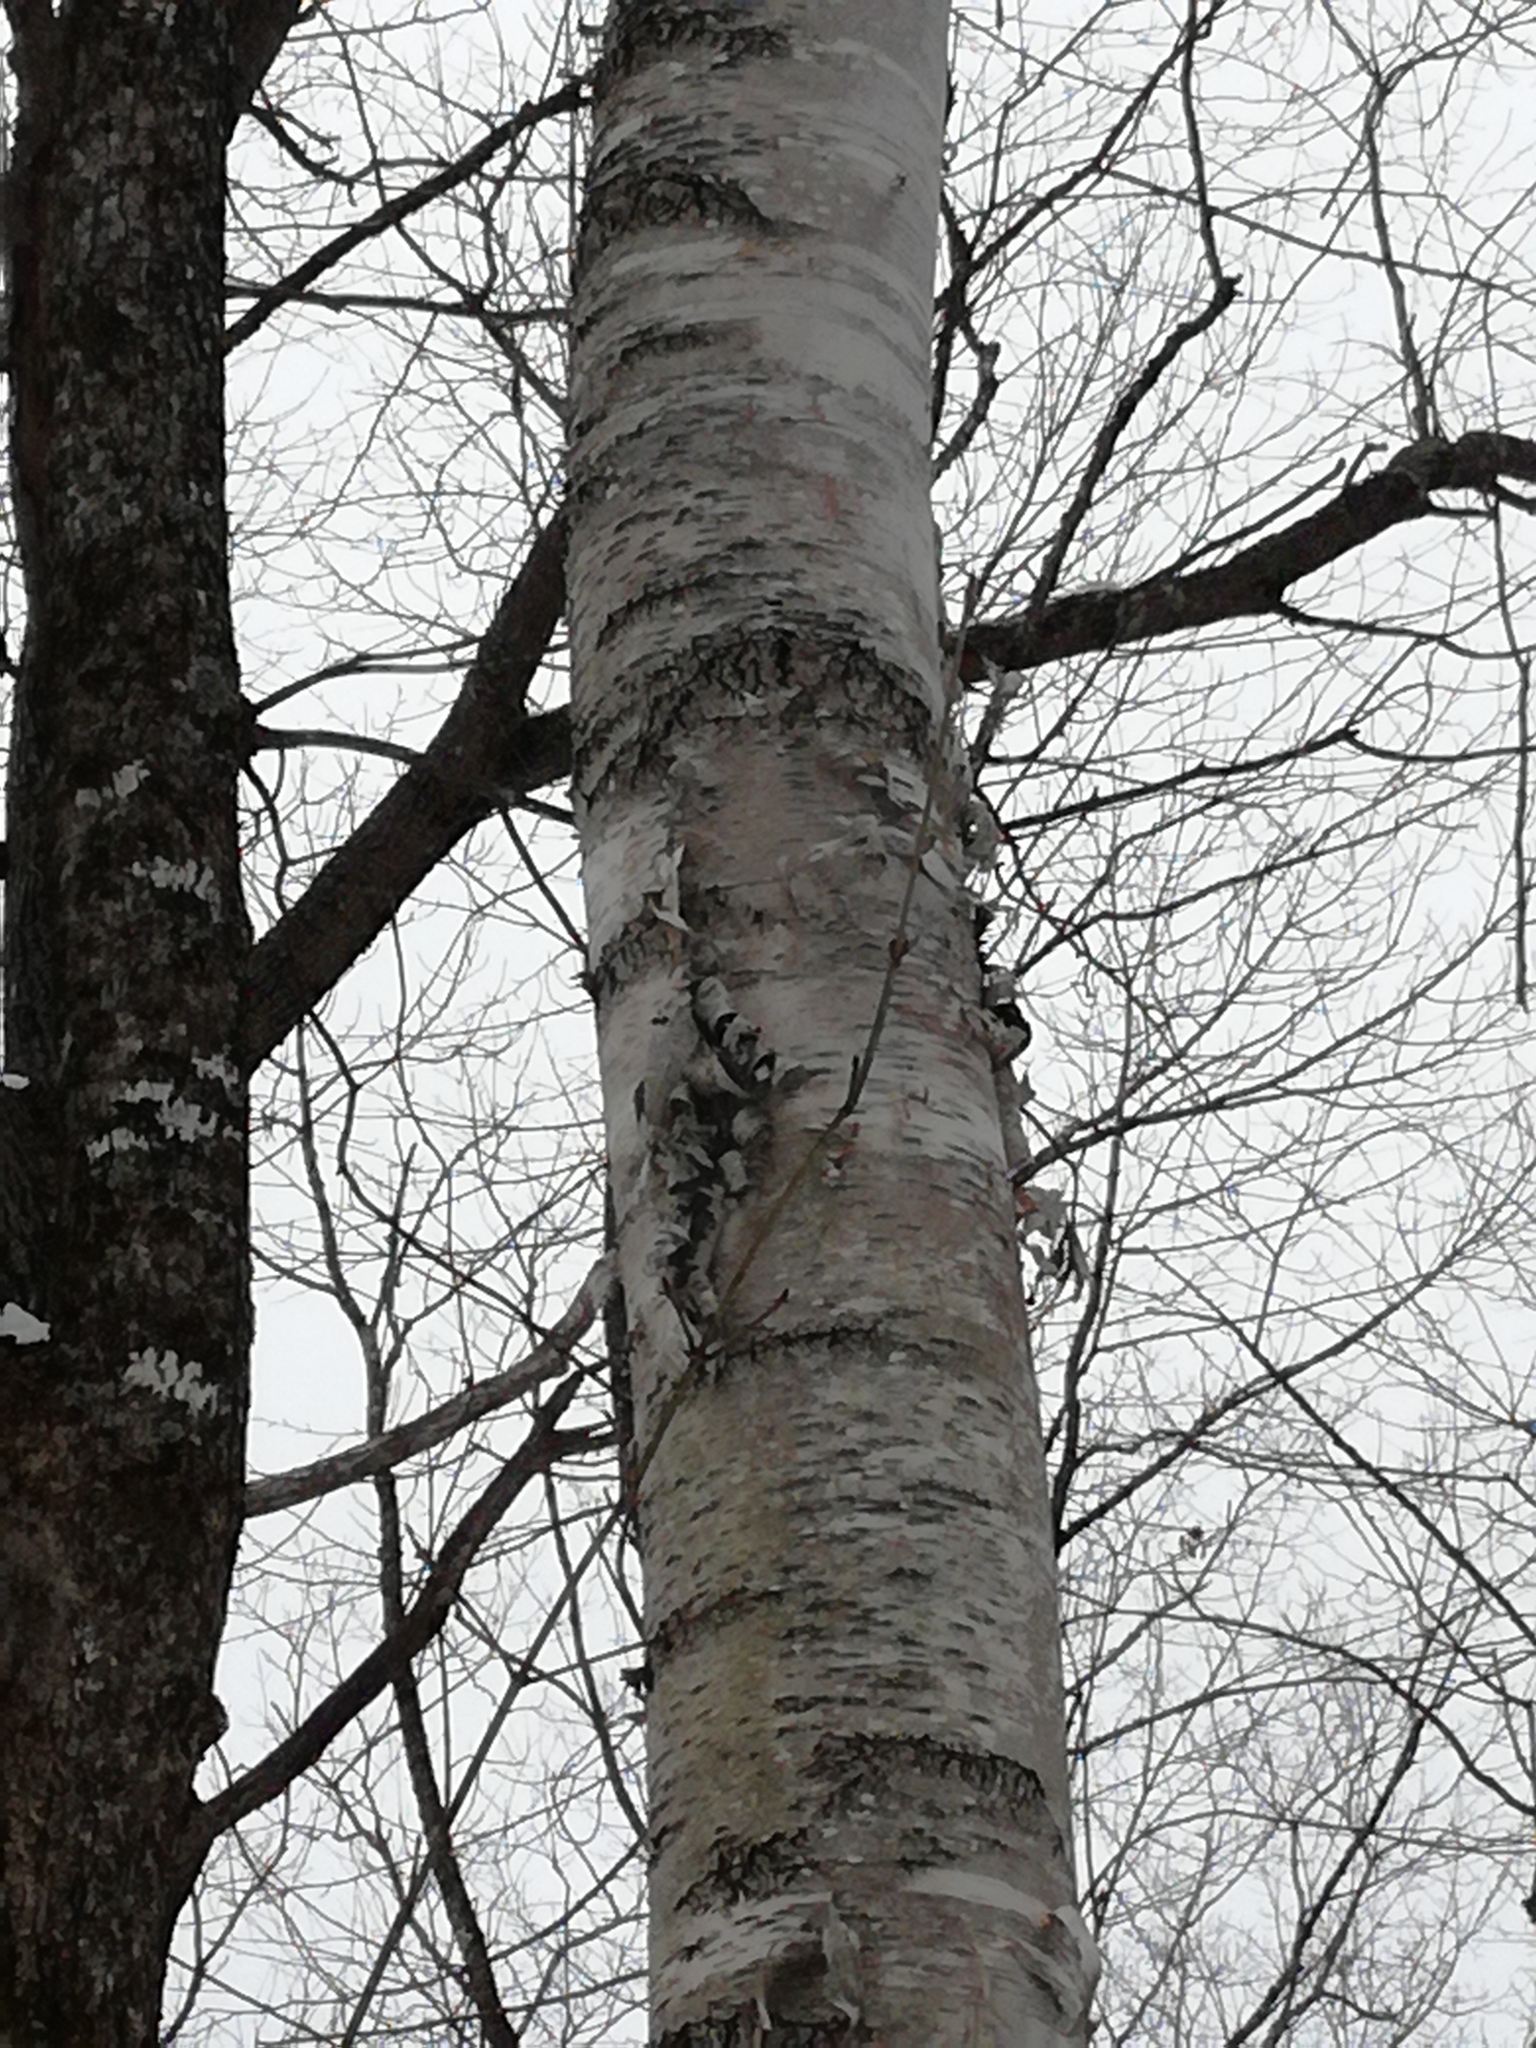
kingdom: Plantae
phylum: Tracheophyta
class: Magnoliopsida
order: Fagales
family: Betulaceae
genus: Betula
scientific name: Betula papyrifera
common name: Paper birch
